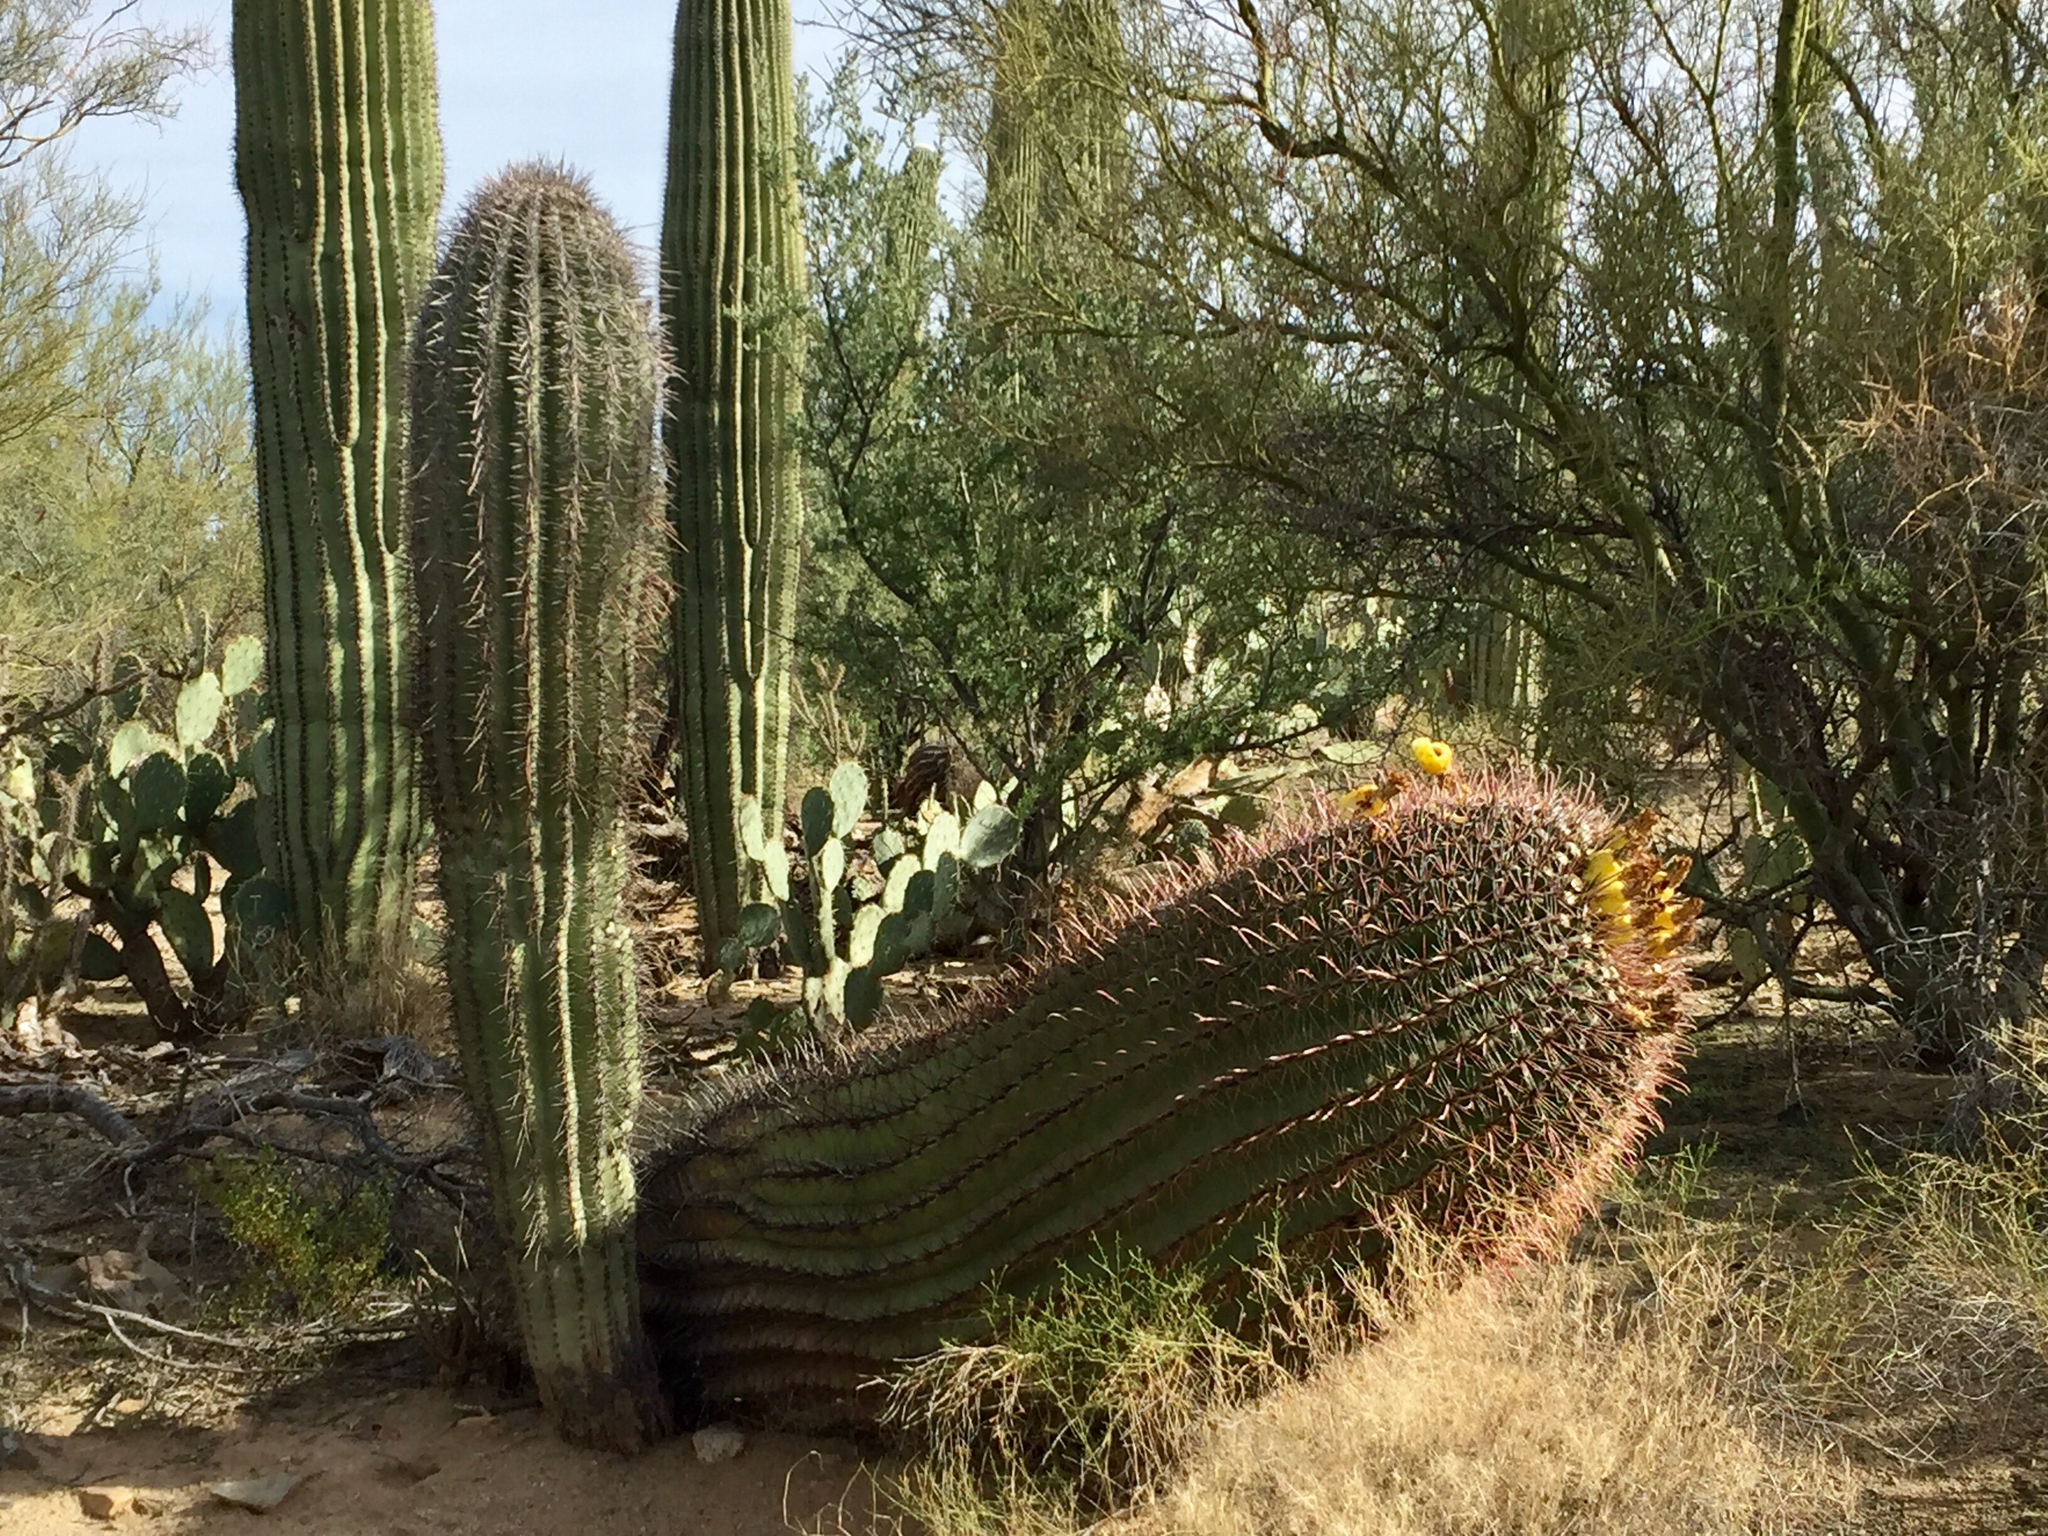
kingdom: Plantae
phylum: Tracheophyta
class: Magnoliopsida
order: Caryophyllales
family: Cactaceae
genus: Ferocactus
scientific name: Ferocactus wislizeni
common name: Candy barrel cactus
